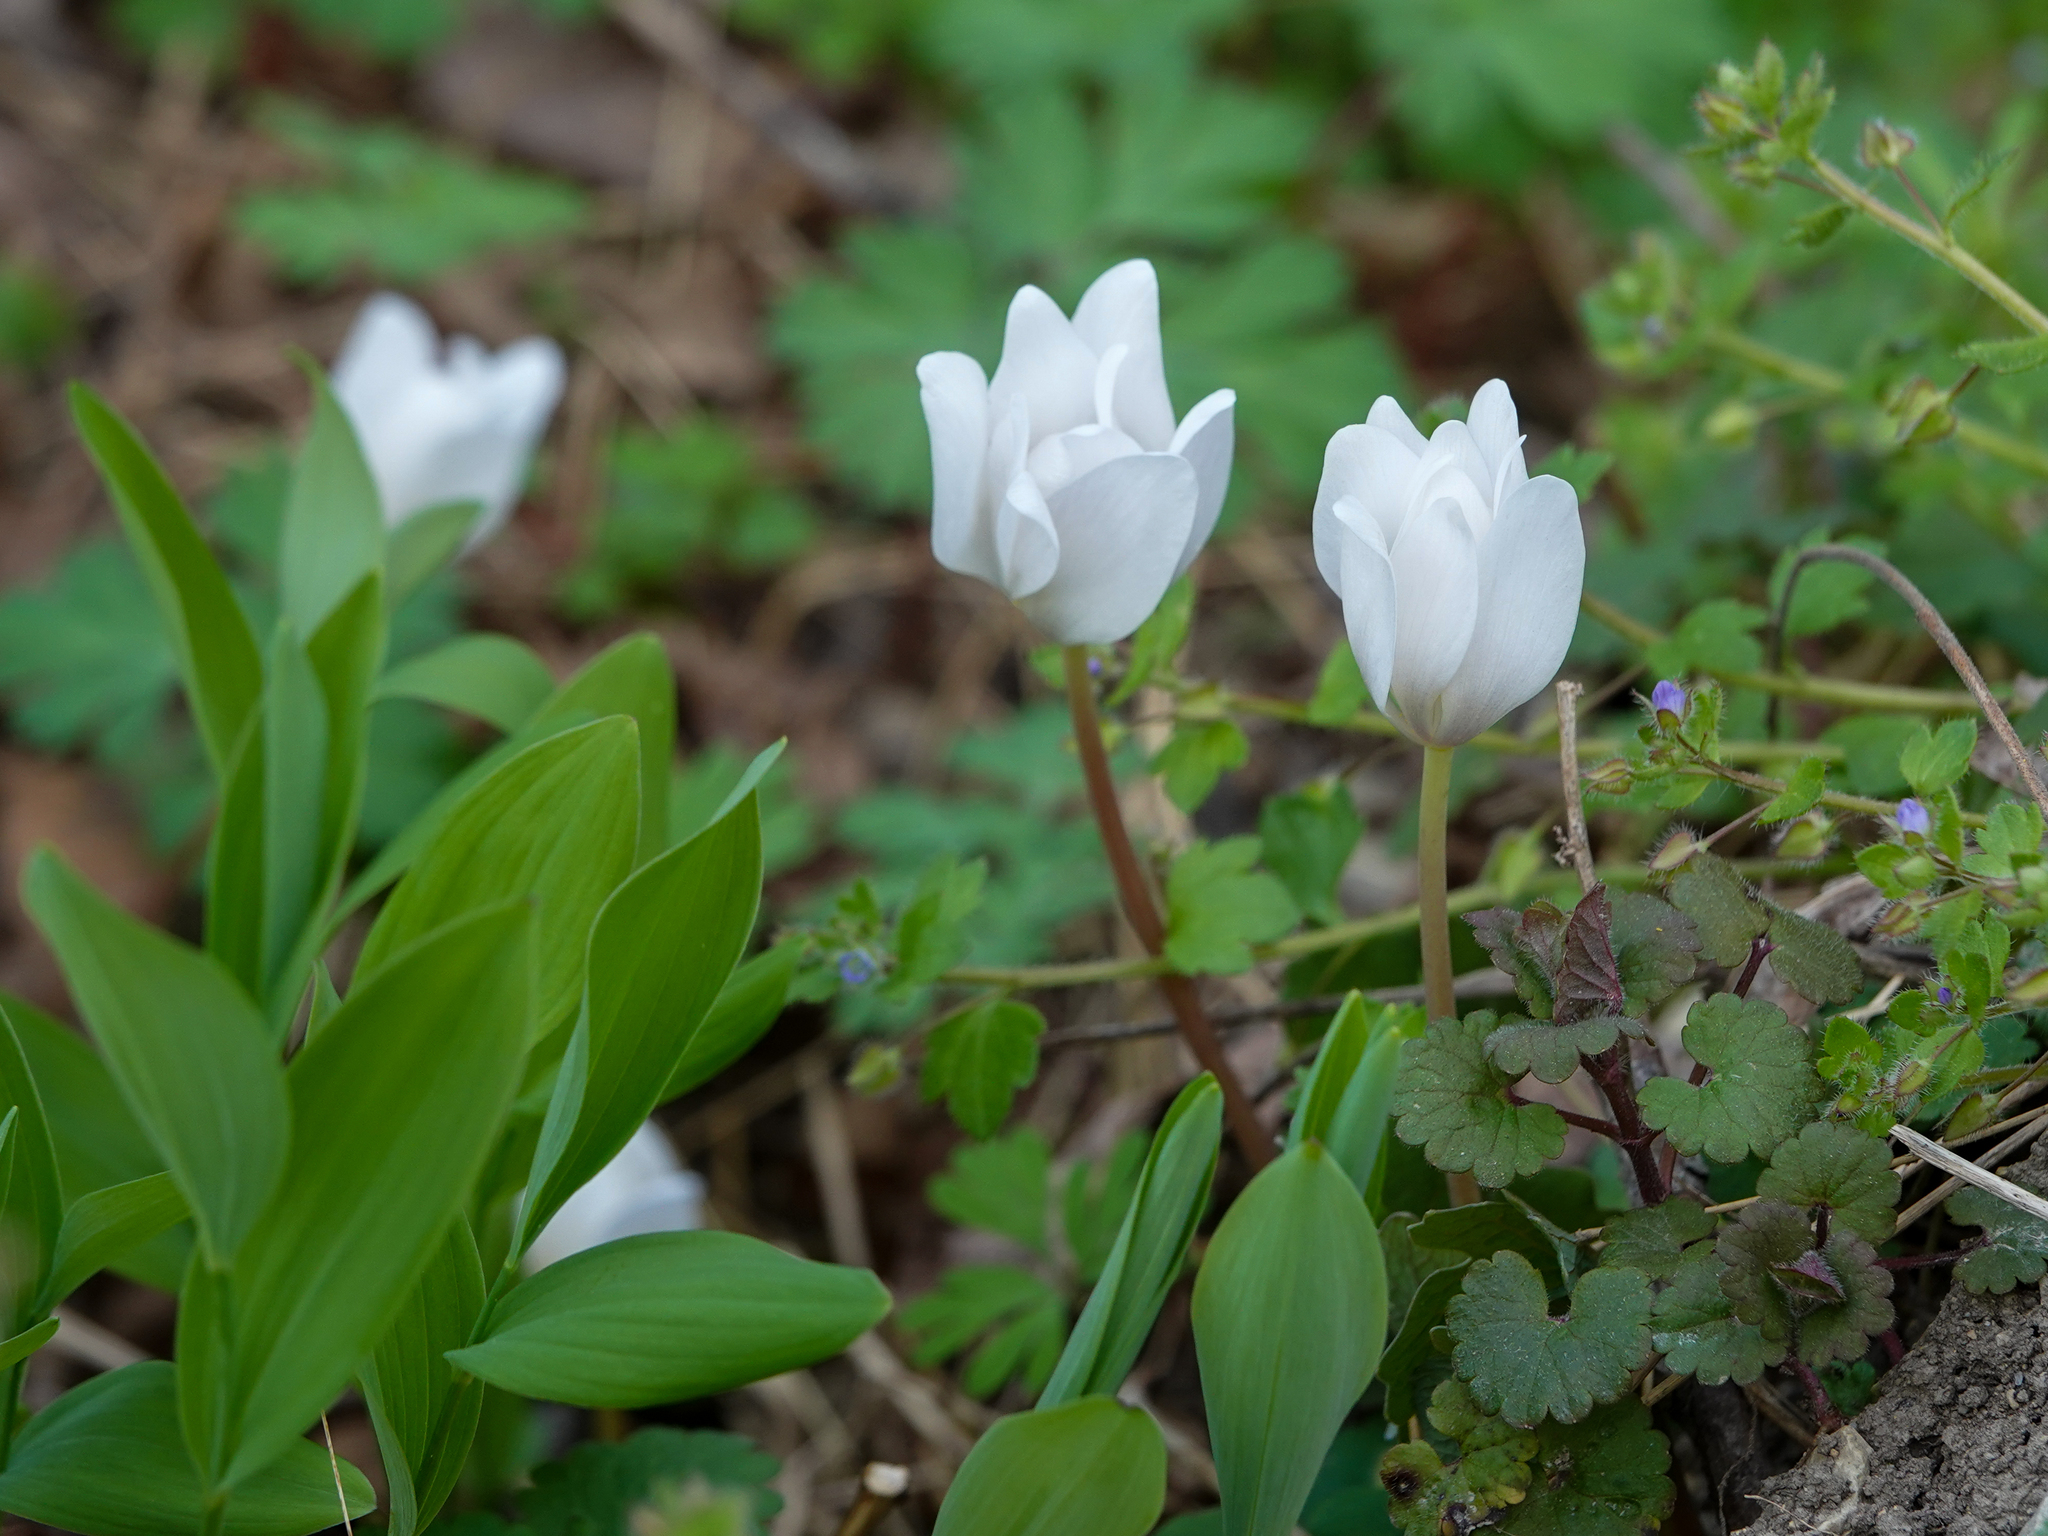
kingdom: Plantae
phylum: Tracheophyta
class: Magnoliopsida
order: Ranunculales
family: Papaveraceae
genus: Sanguinaria
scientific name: Sanguinaria canadensis
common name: Bloodroot
